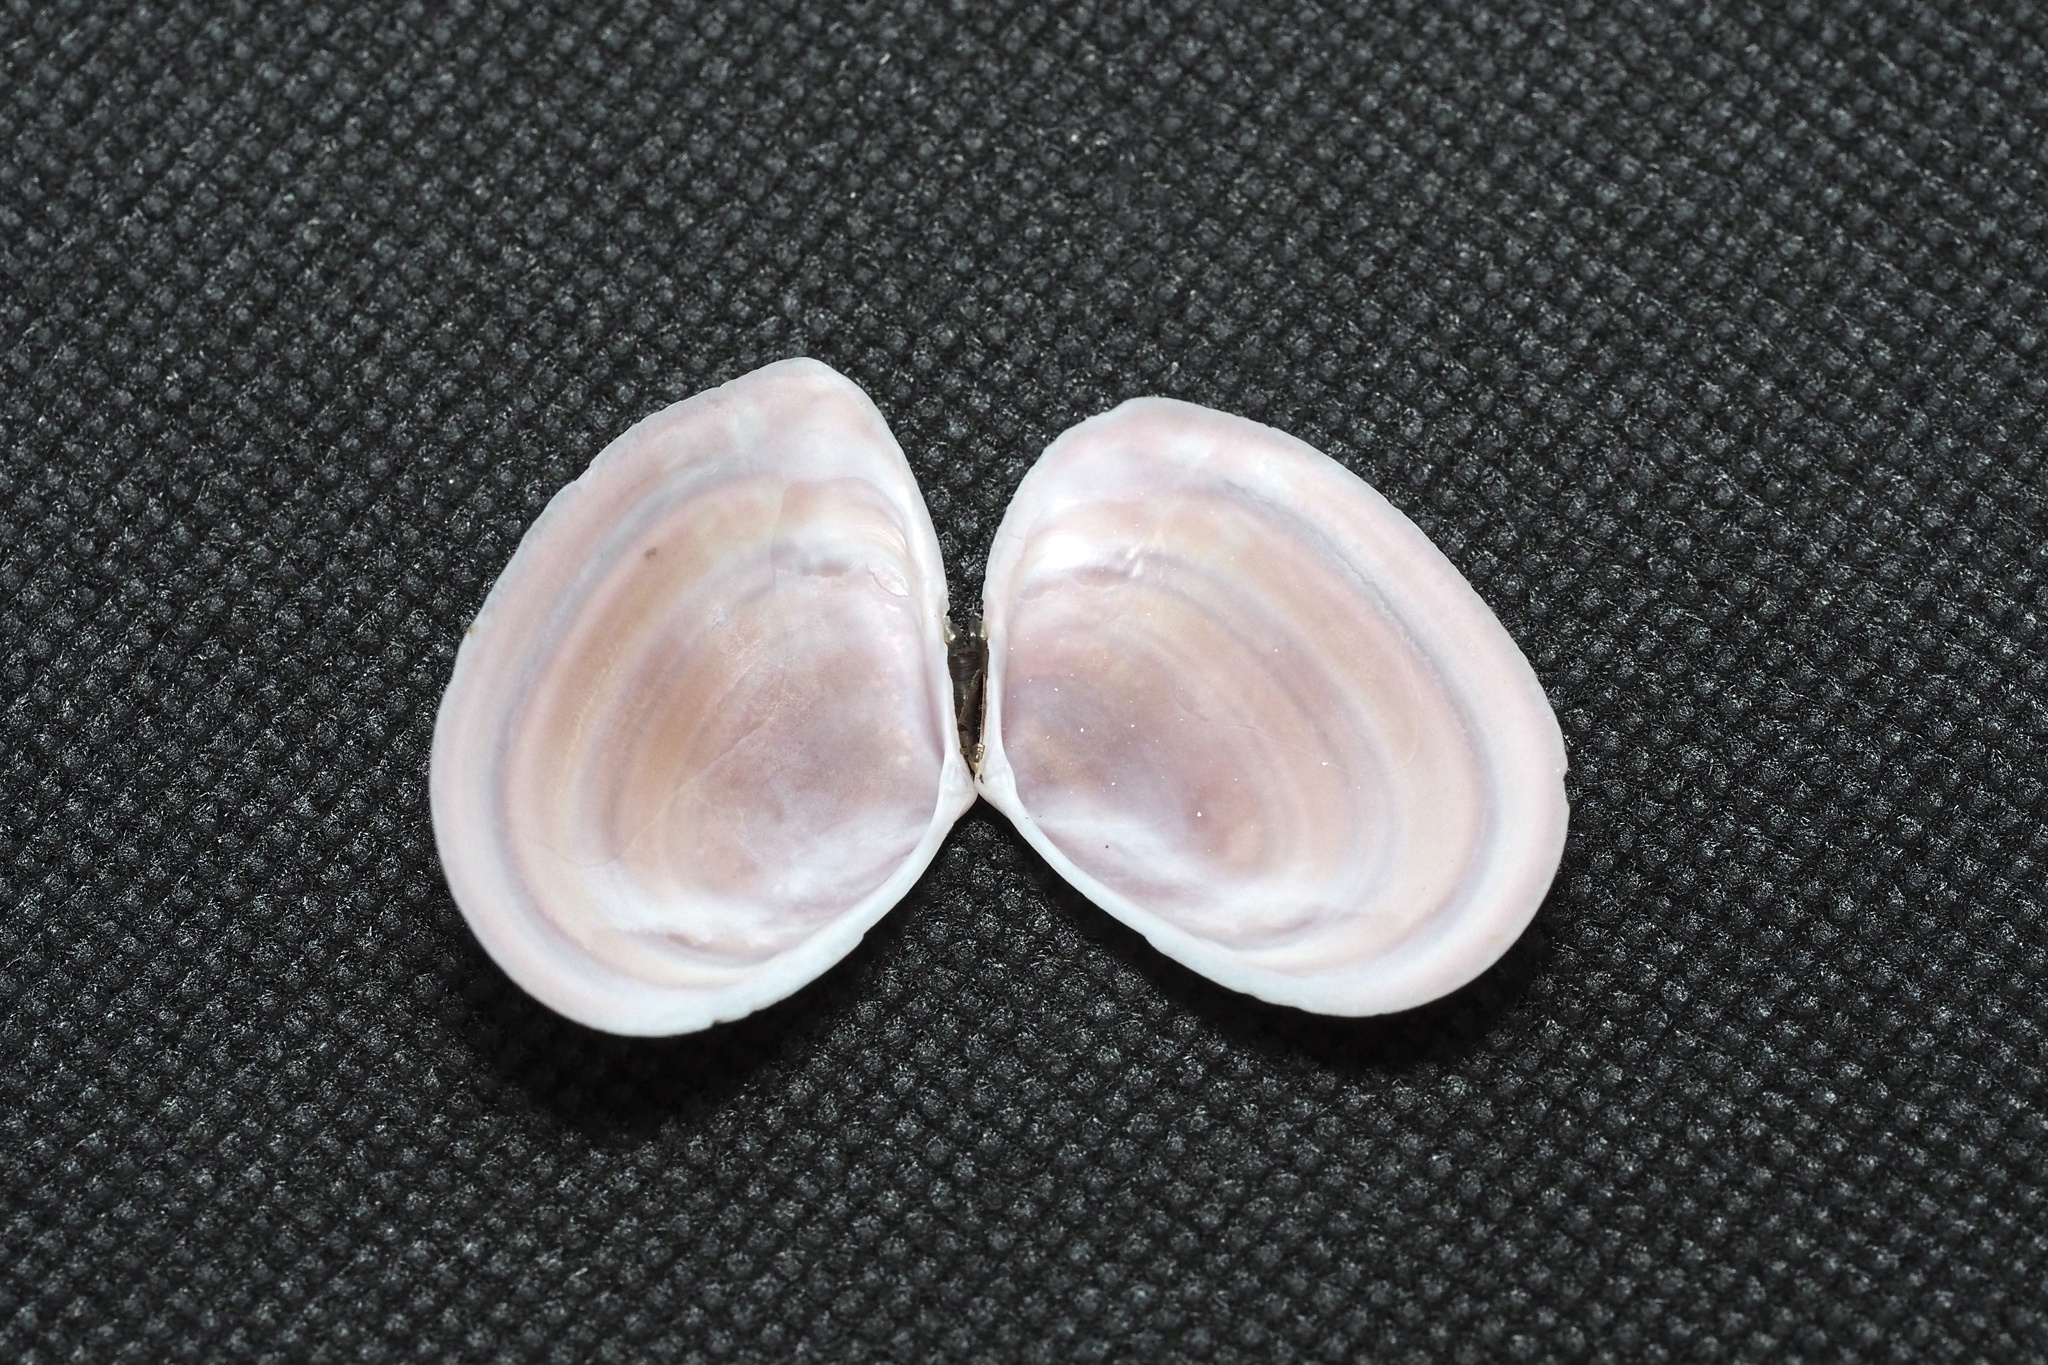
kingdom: Animalia
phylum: Mollusca
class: Bivalvia
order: Cardiida
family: Tellinidae
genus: Macoma
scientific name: Macoma incongrua
